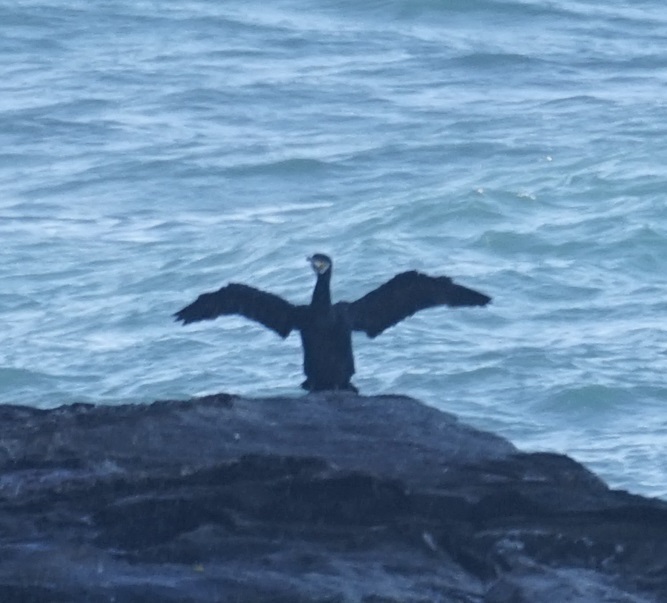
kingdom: Animalia
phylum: Chordata
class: Aves
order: Suliformes
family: Phalacrocoracidae
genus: Phalacrocorax
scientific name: Phalacrocorax carbo
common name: Great cormorant
